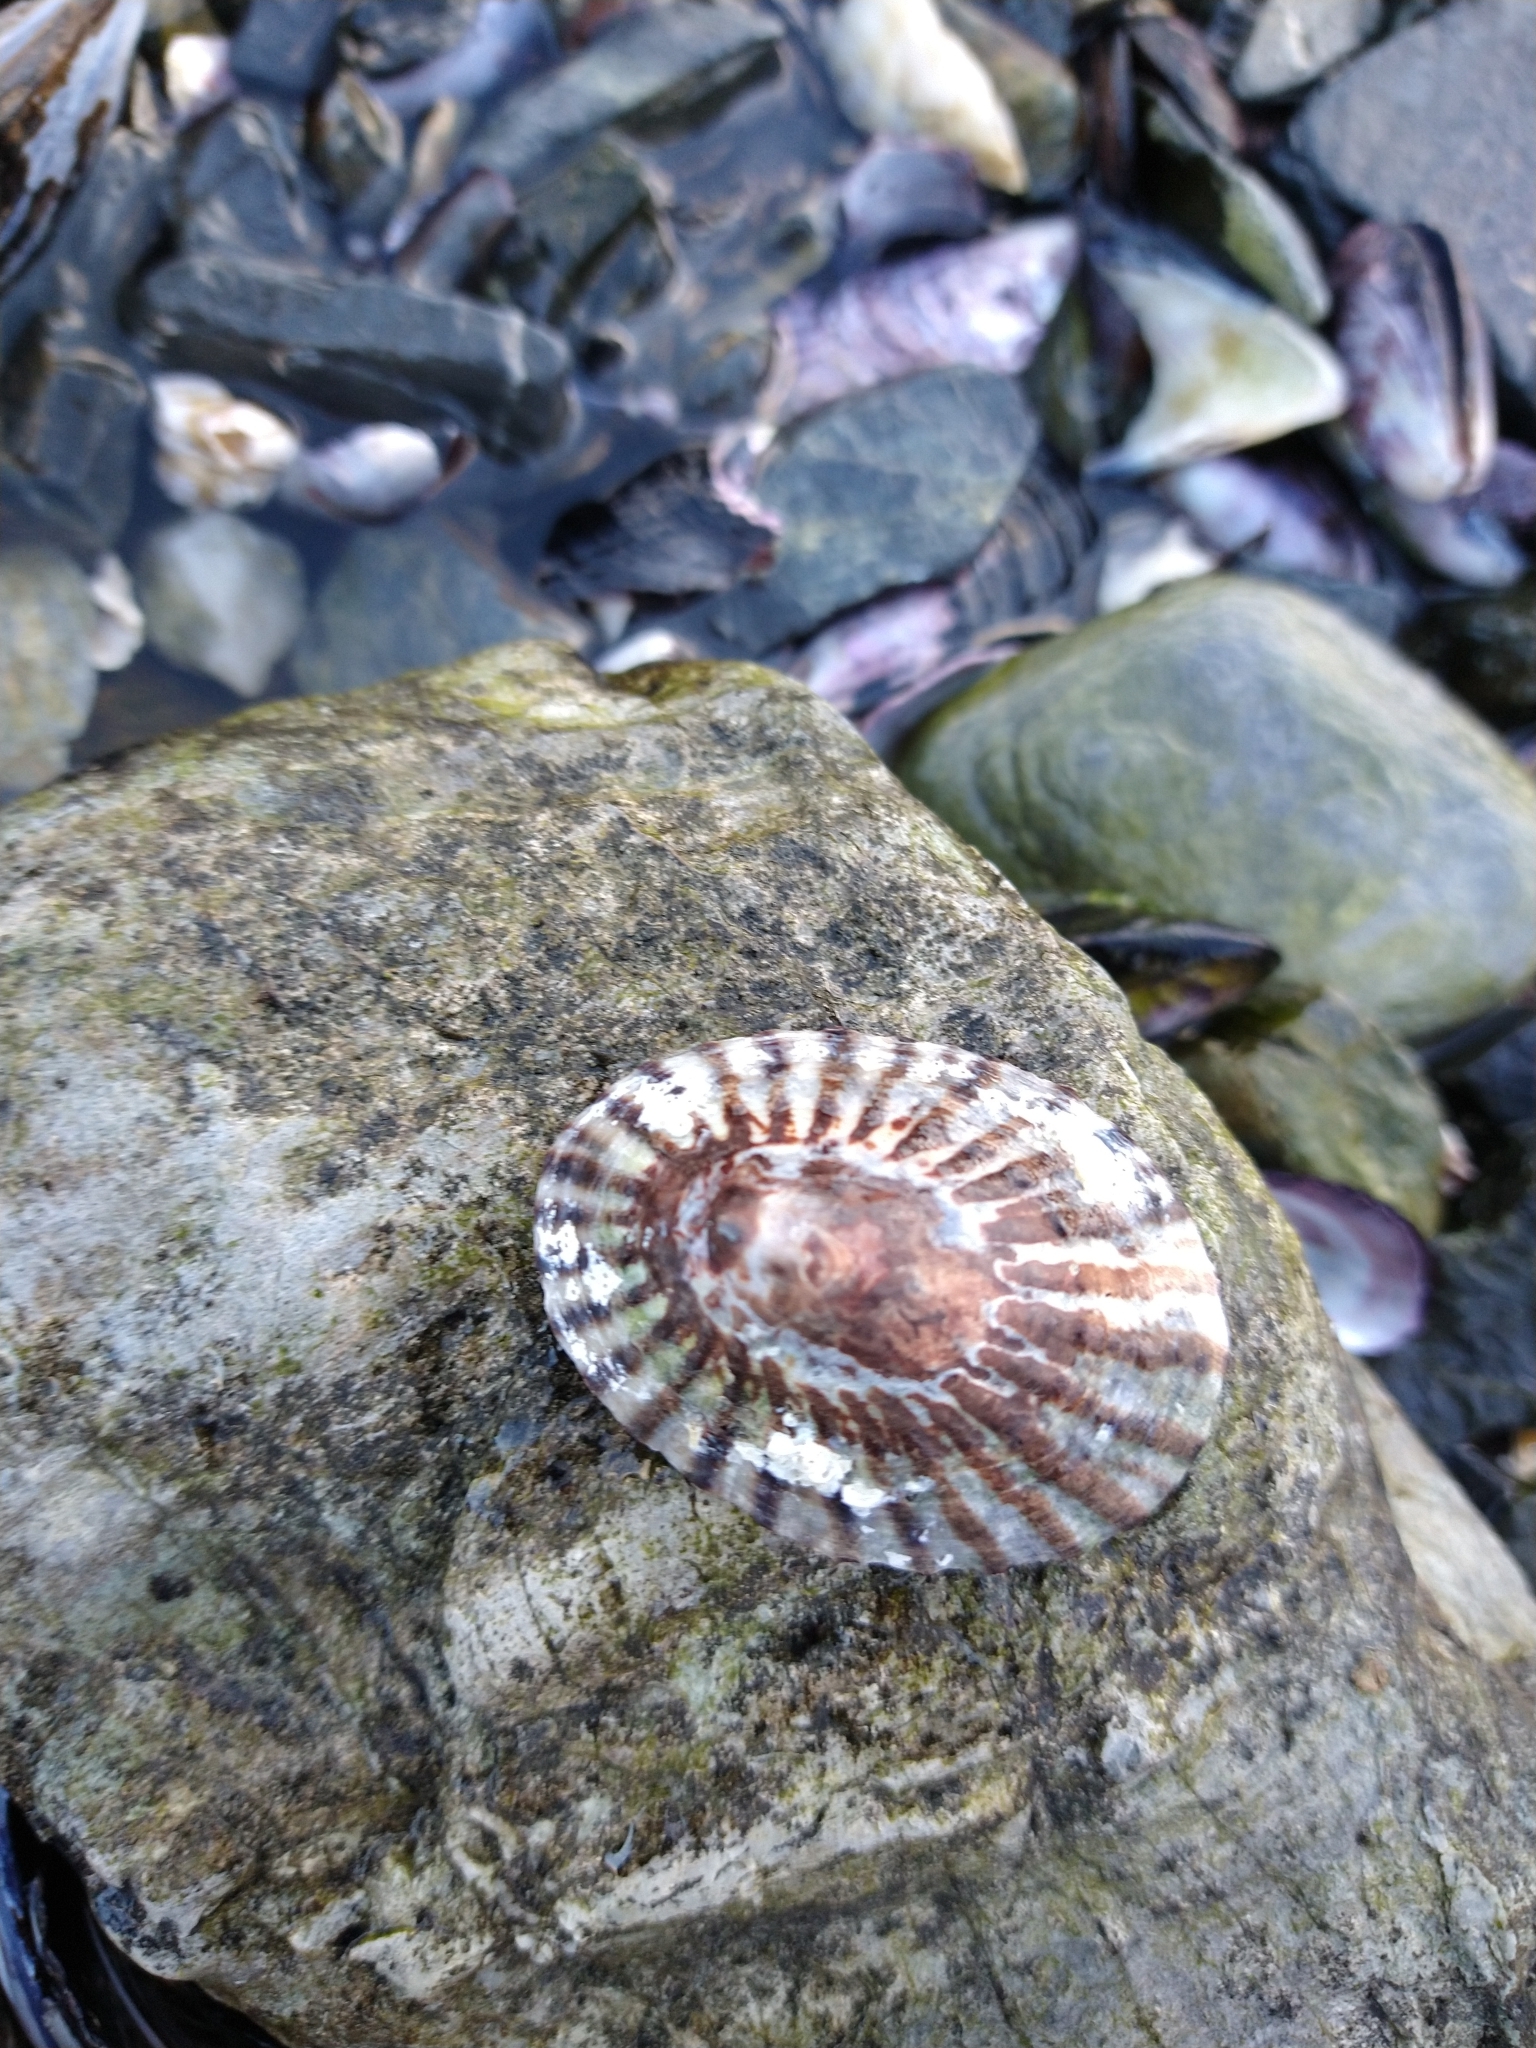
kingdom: Animalia
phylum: Mollusca
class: Gastropoda
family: Nacellidae
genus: Nacella
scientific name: Nacella deaurata
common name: Golden limpet
